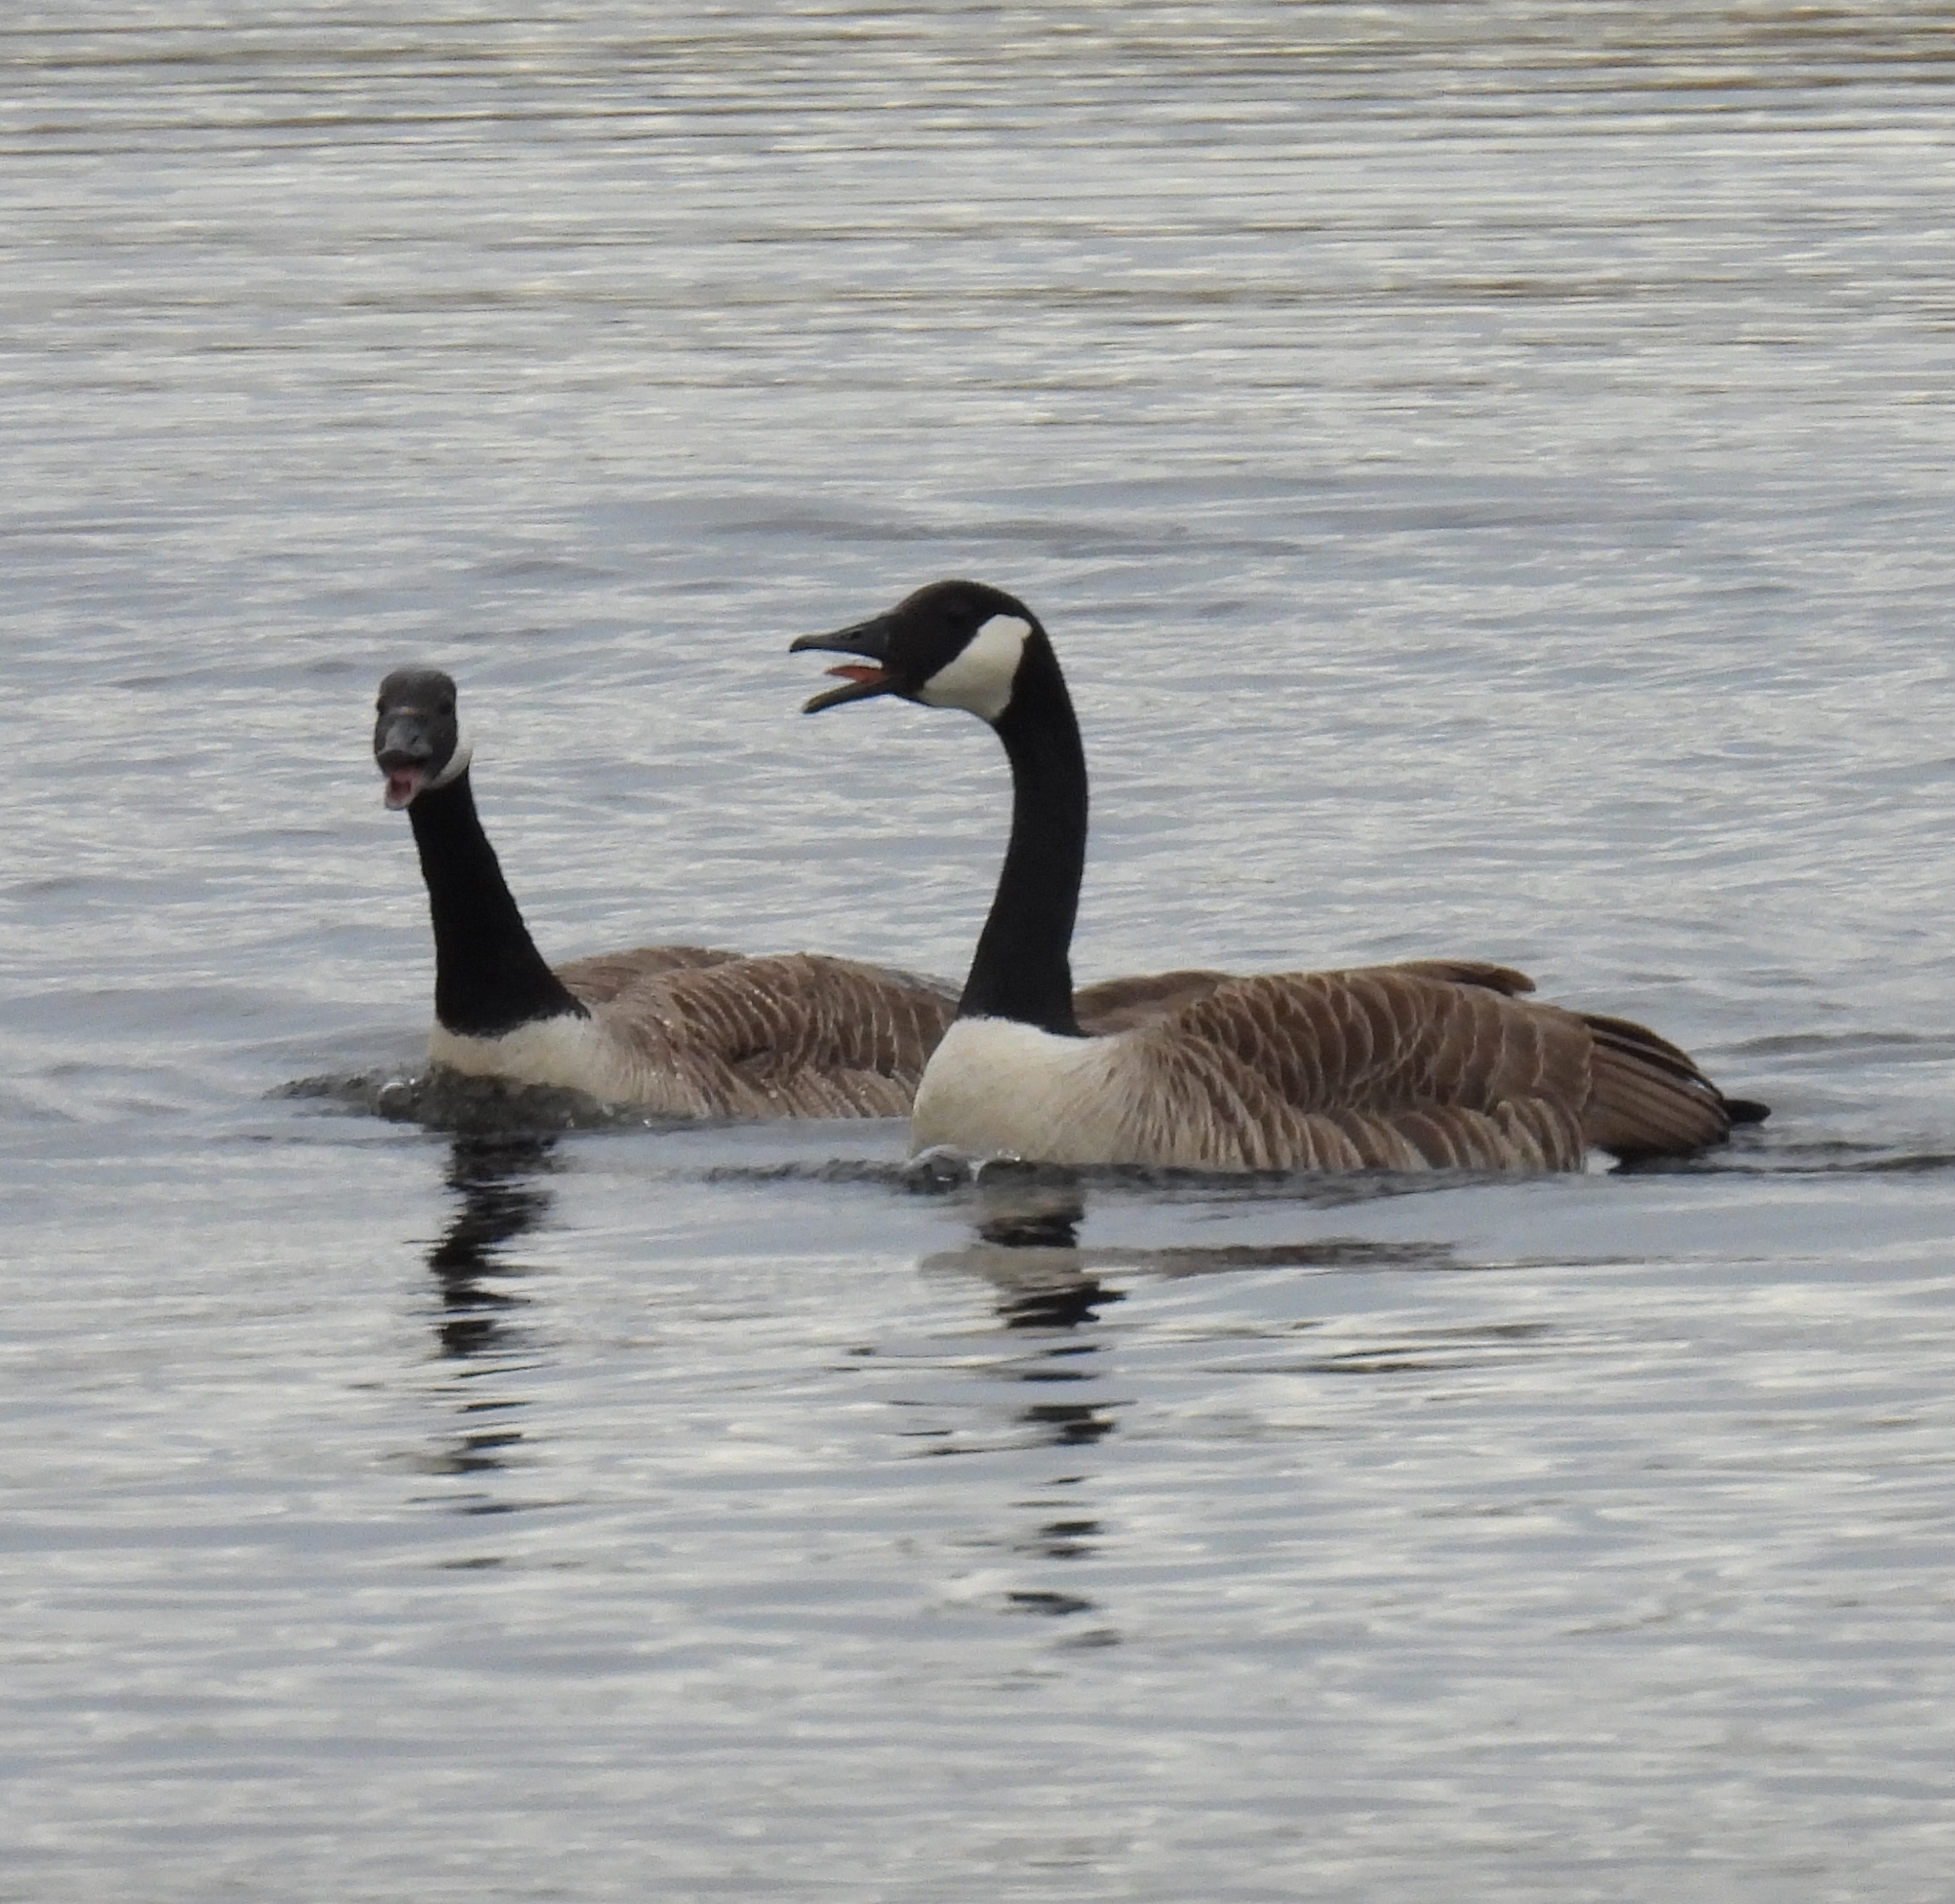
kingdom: Animalia
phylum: Chordata
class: Aves
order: Anseriformes
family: Anatidae
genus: Branta
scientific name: Branta canadensis
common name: Canada goose
